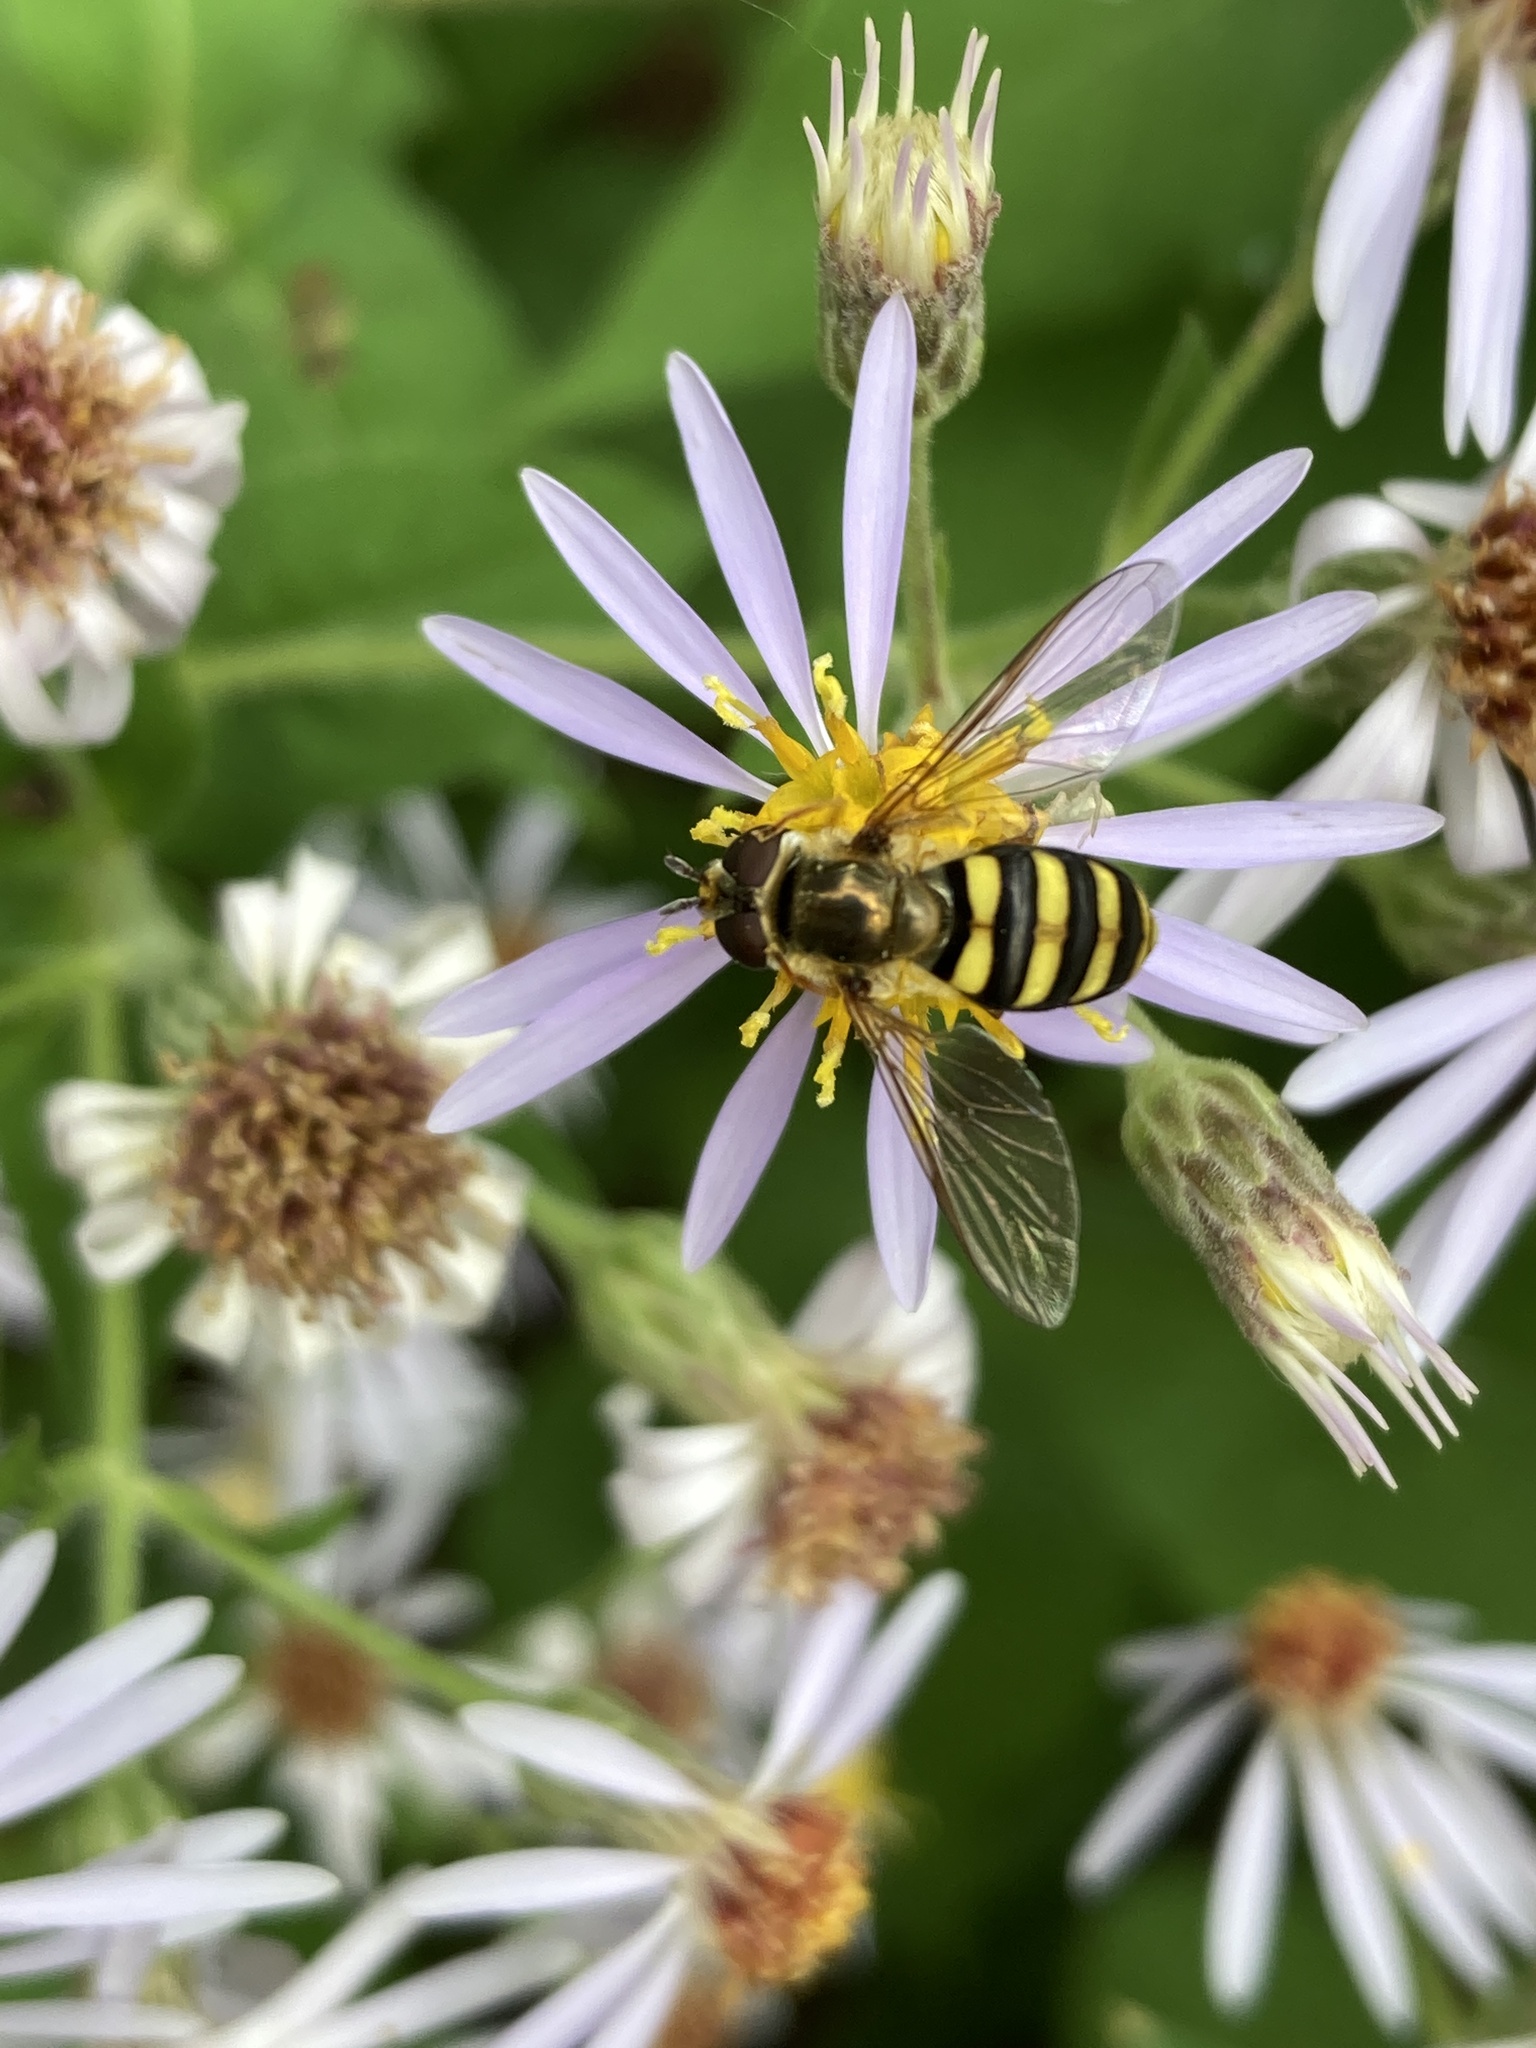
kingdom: Animalia
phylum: Arthropoda
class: Insecta
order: Diptera
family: Syrphidae
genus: Eupeodes
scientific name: Eupeodes
